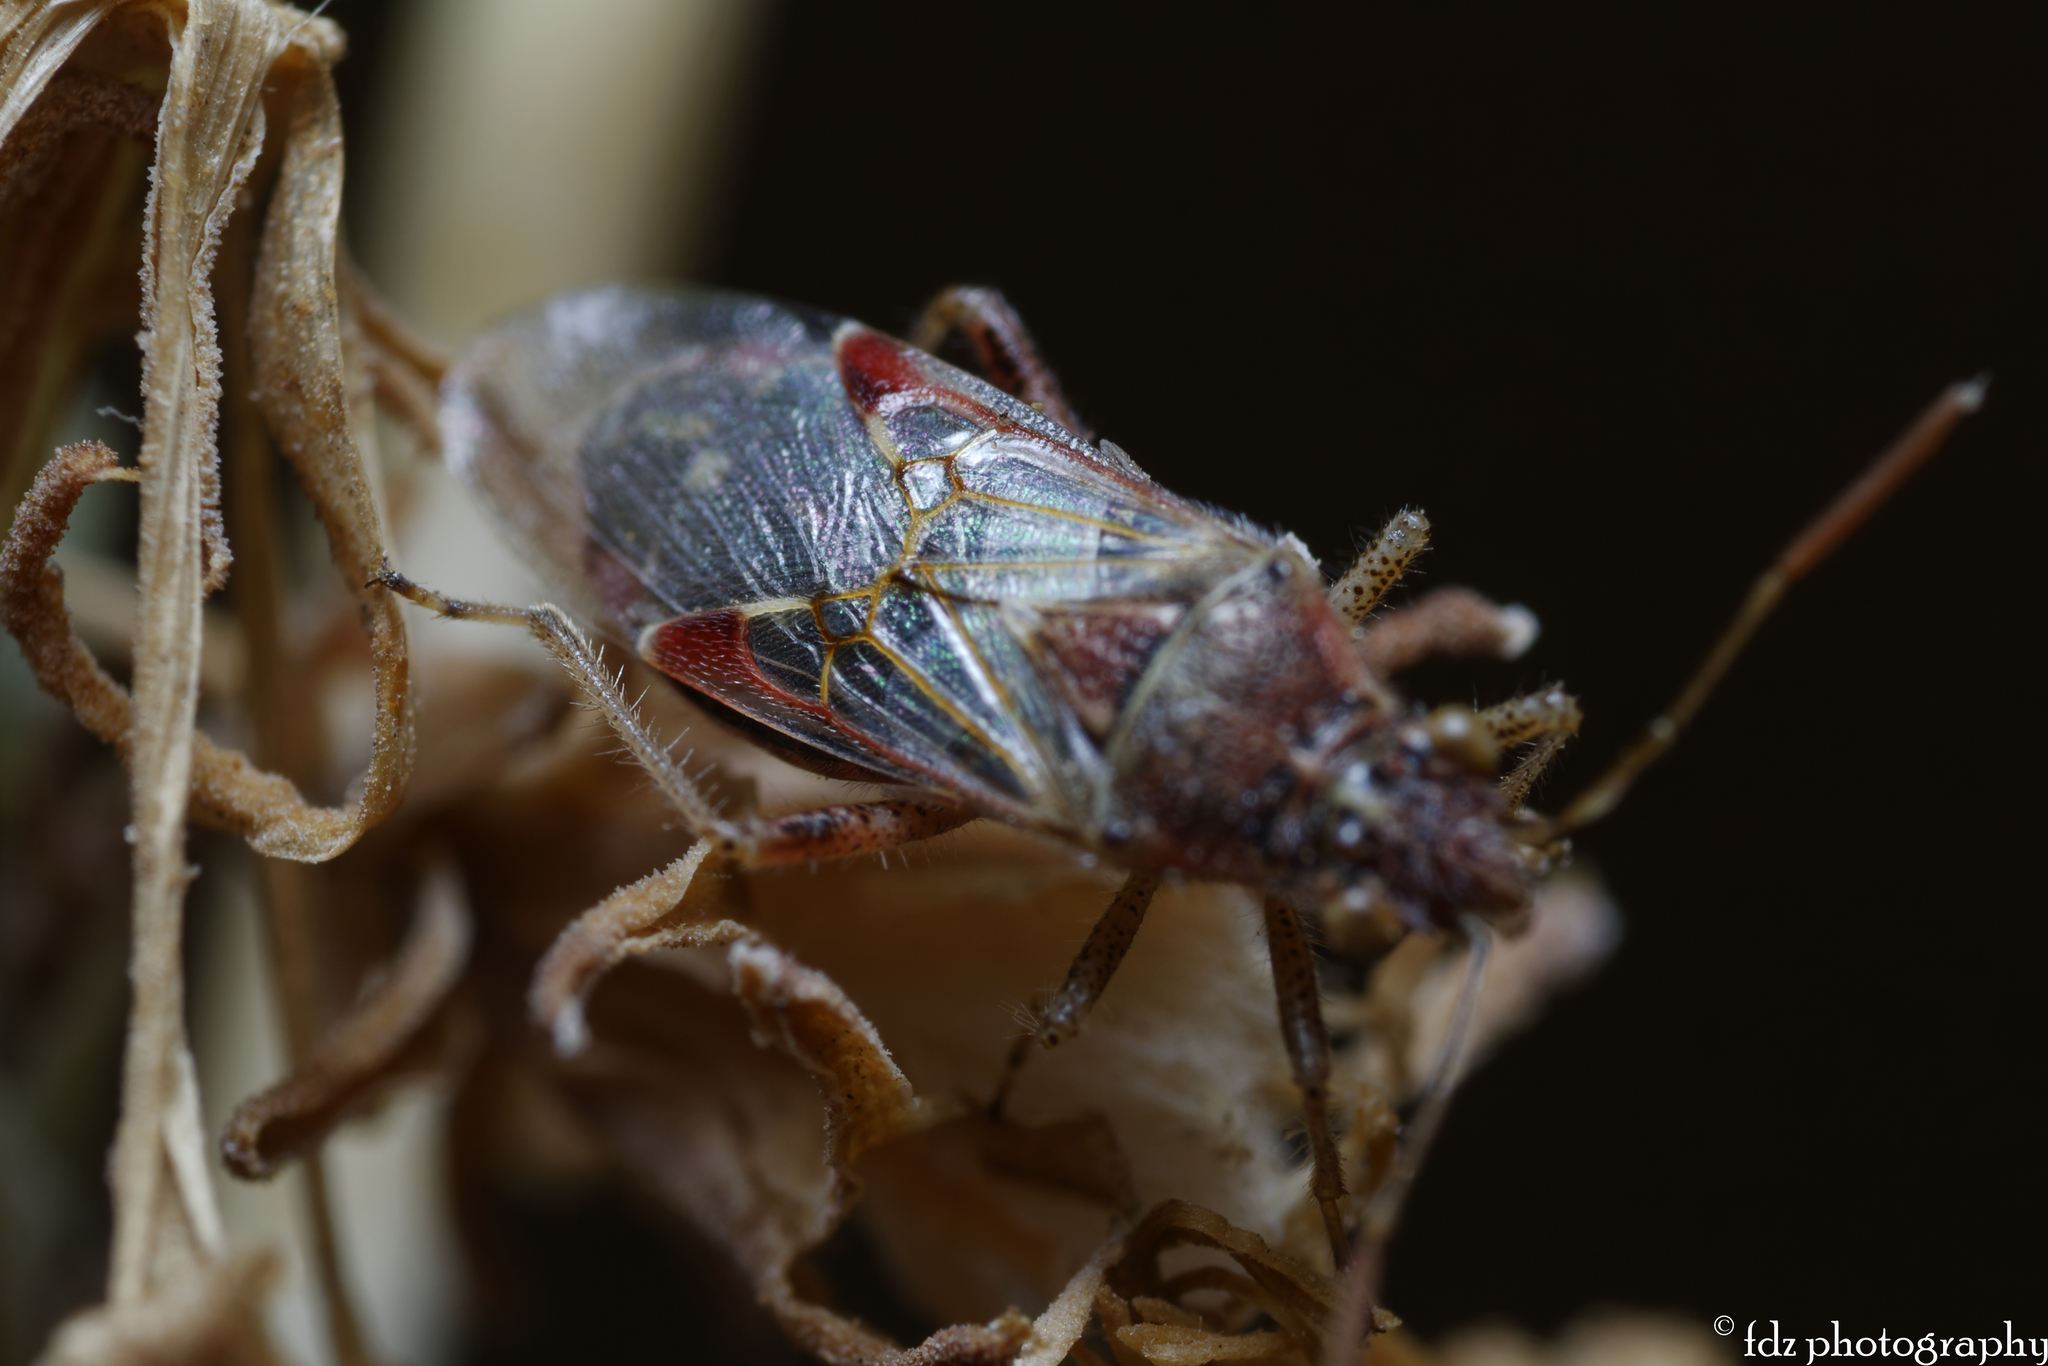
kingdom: Animalia
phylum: Arthropoda
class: Insecta
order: Hemiptera
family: Rhopalidae
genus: Liorhyssus
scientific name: Liorhyssus hyalinus
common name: Scentless plant bug
